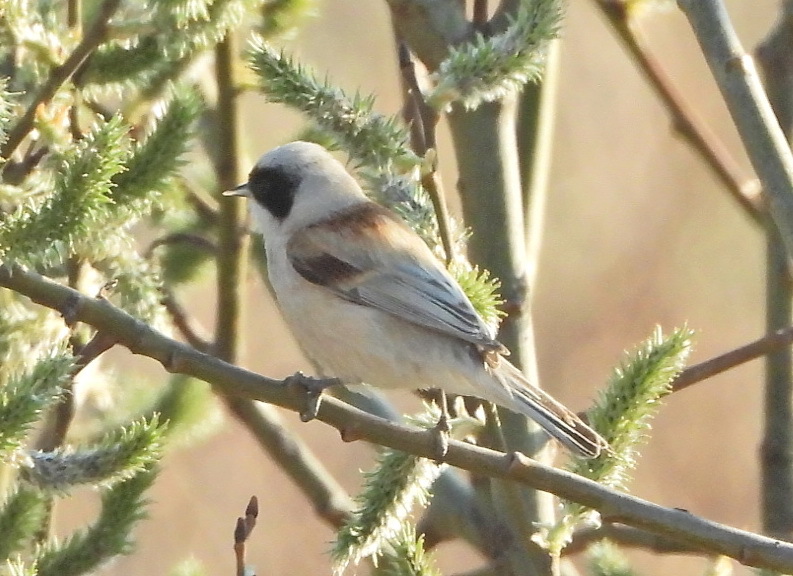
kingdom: Animalia
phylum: Chordata
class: Aves
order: Passeriformes
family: Remizidae
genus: Remiz
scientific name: Remiz pendulinus
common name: Eurasian penduline tit
